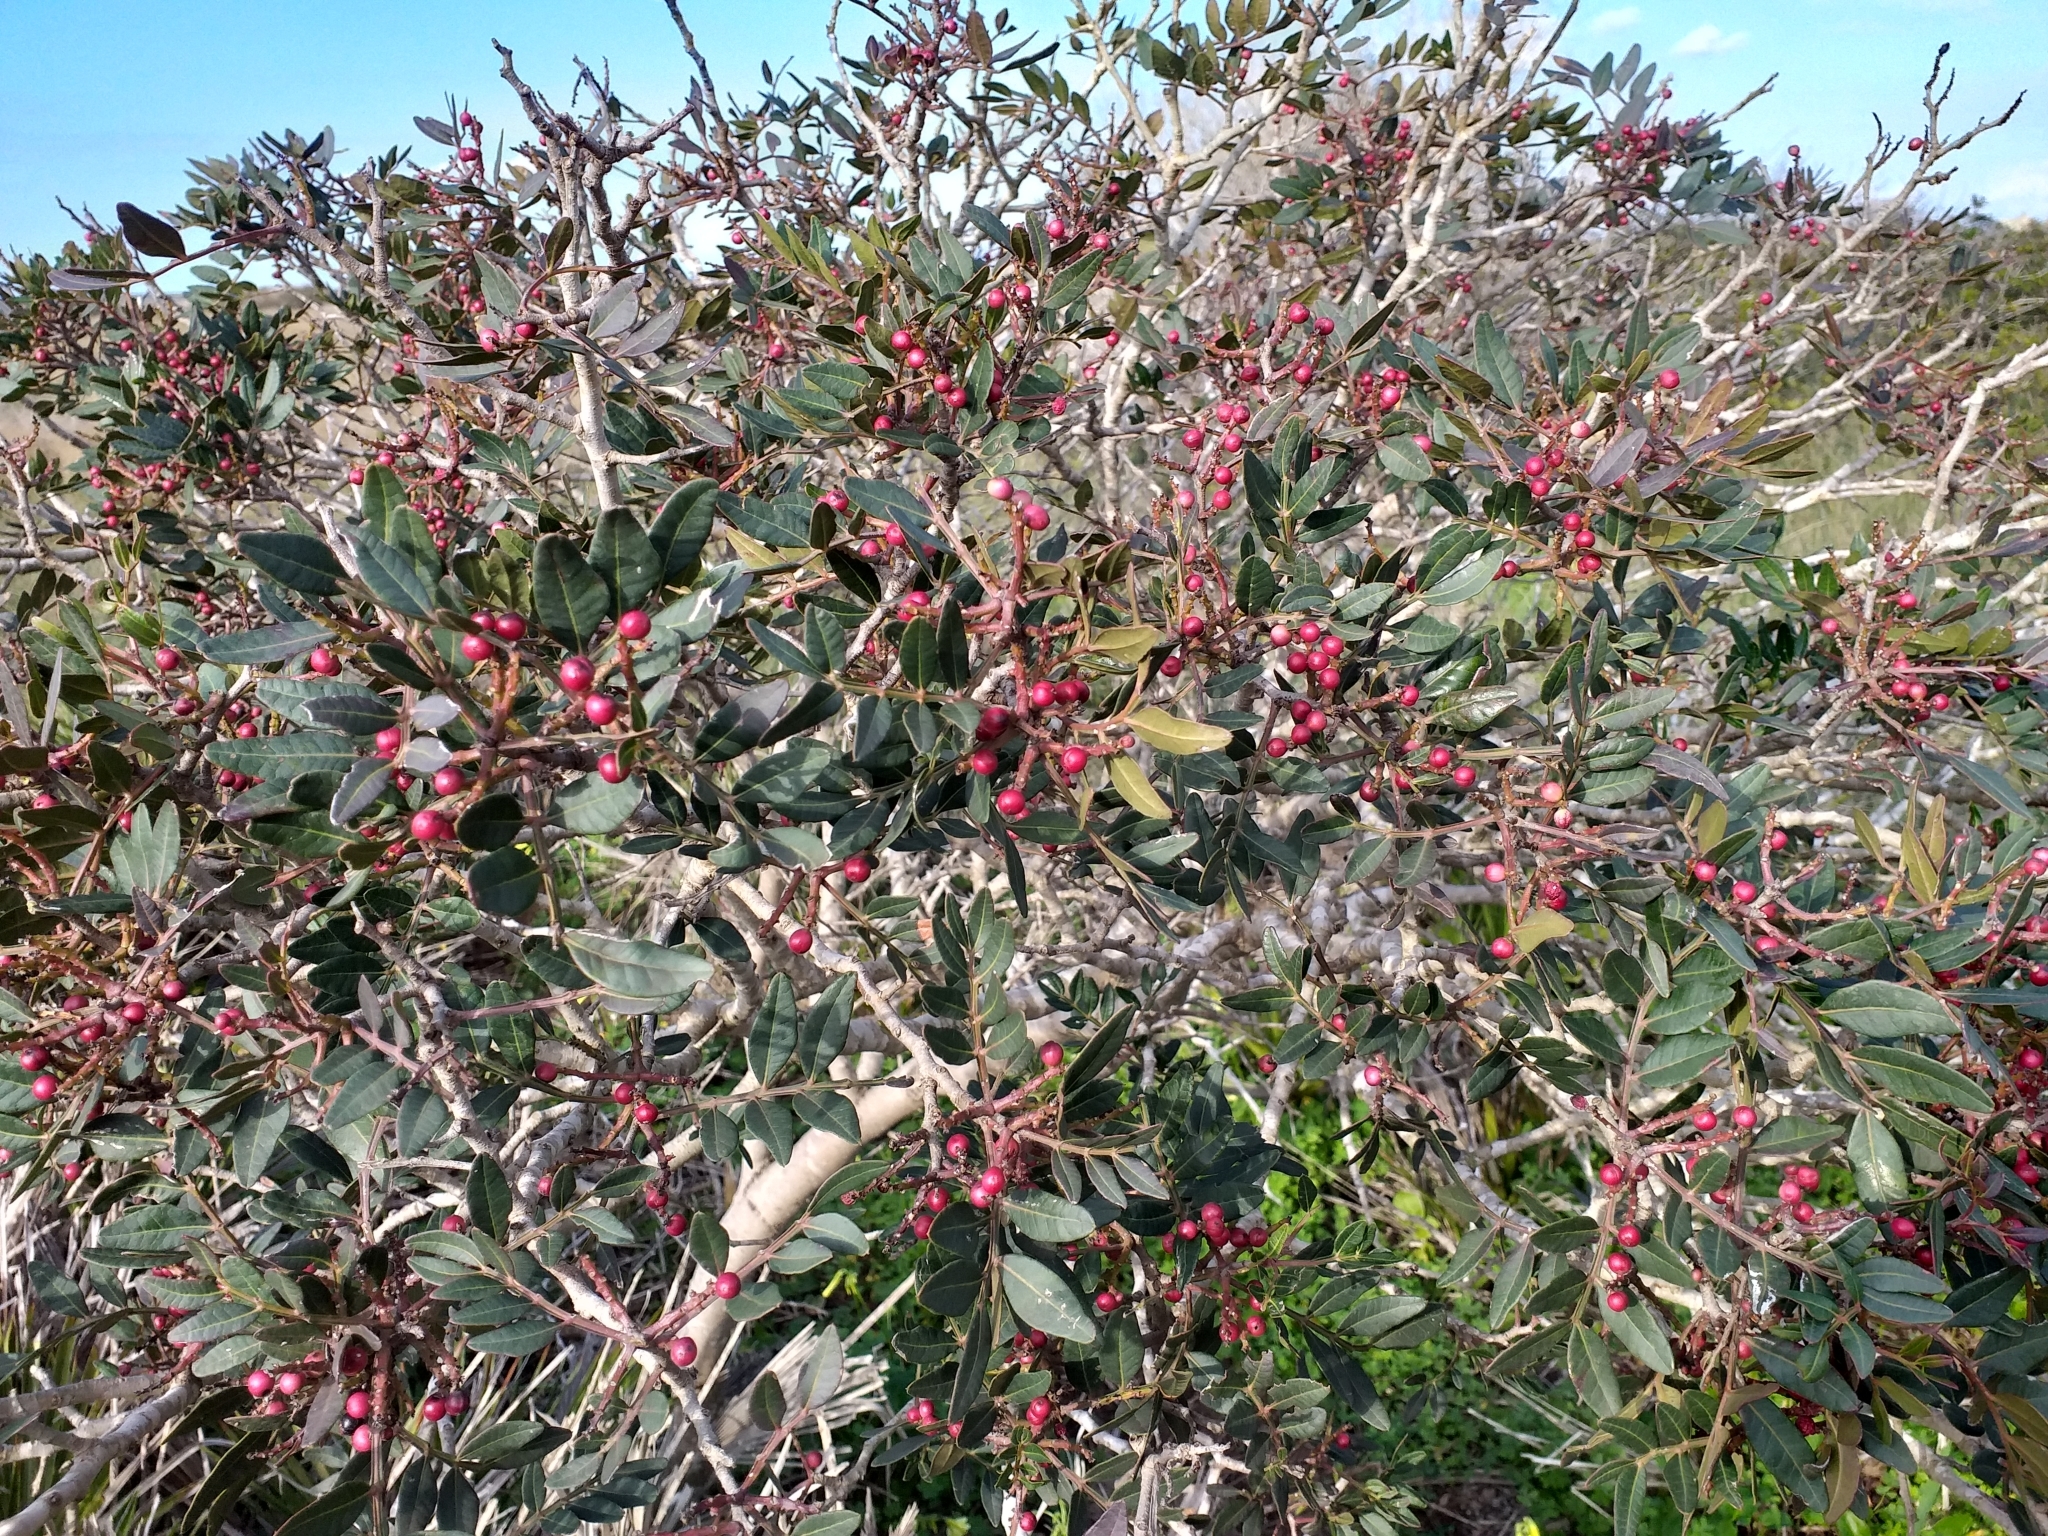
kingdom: Plantae
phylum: Tracheophyta
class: Magnoliopsida
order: Sapindales
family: Anacardiaceae
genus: Pistacia
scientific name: Pistacia lentiscus
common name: Lentisk
